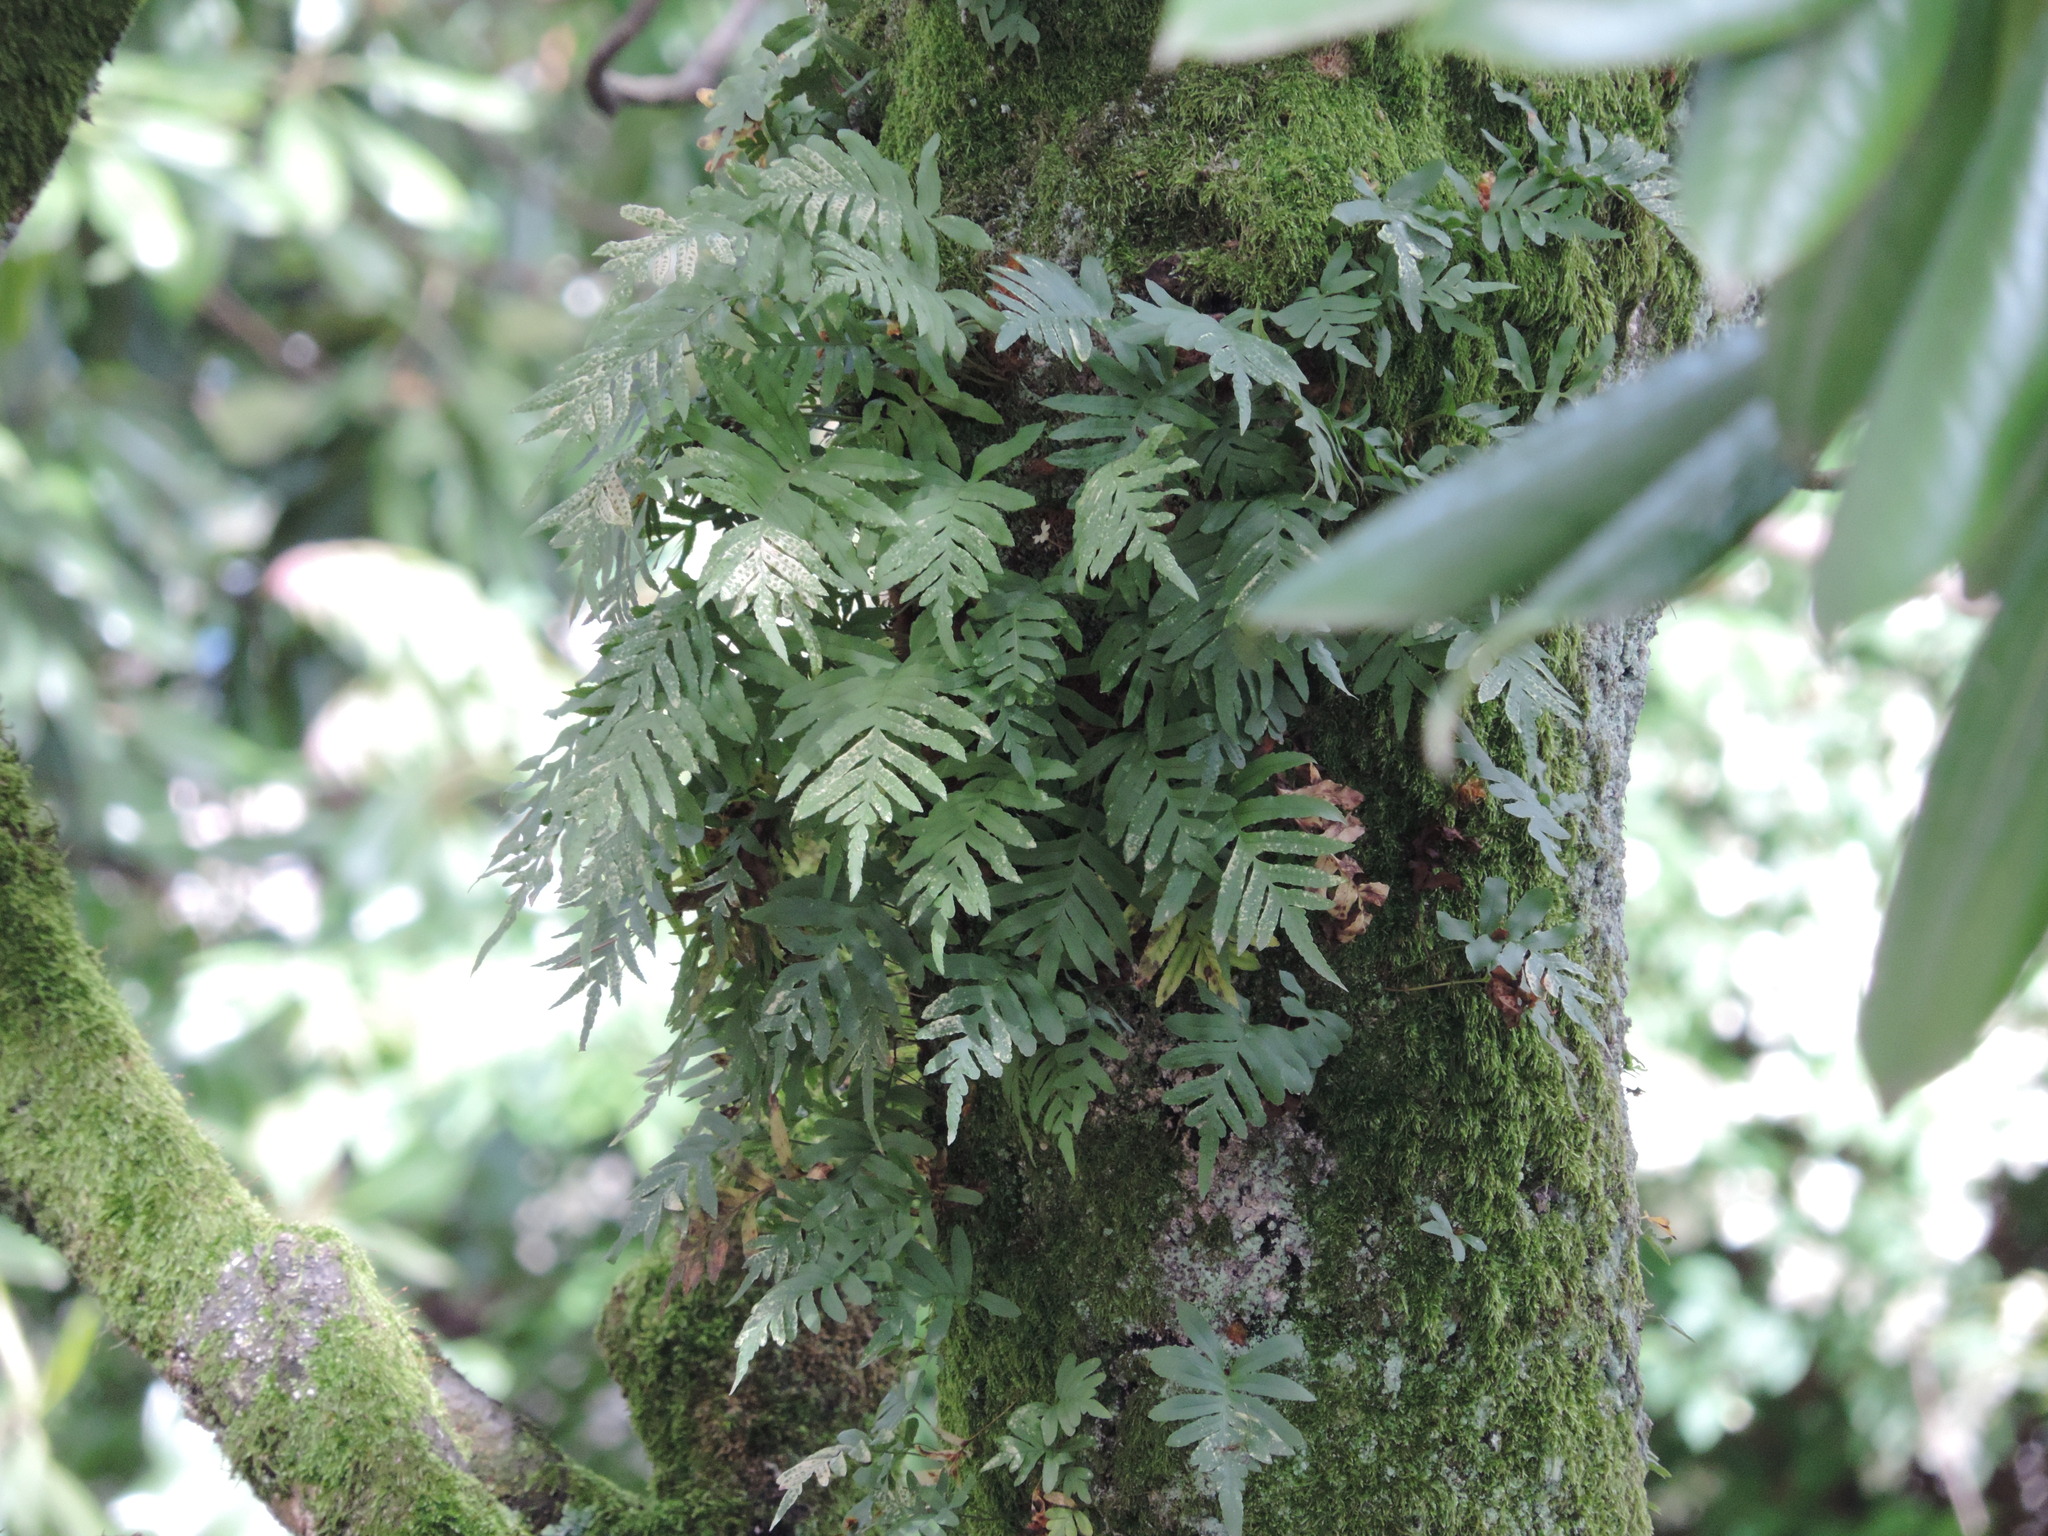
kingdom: Plantae
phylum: Tracheophyta
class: Polypodiopsida
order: Polypodiales
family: Polypodiaceae
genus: Polypodium
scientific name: Polypodium cambricum
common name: Southern polypody
